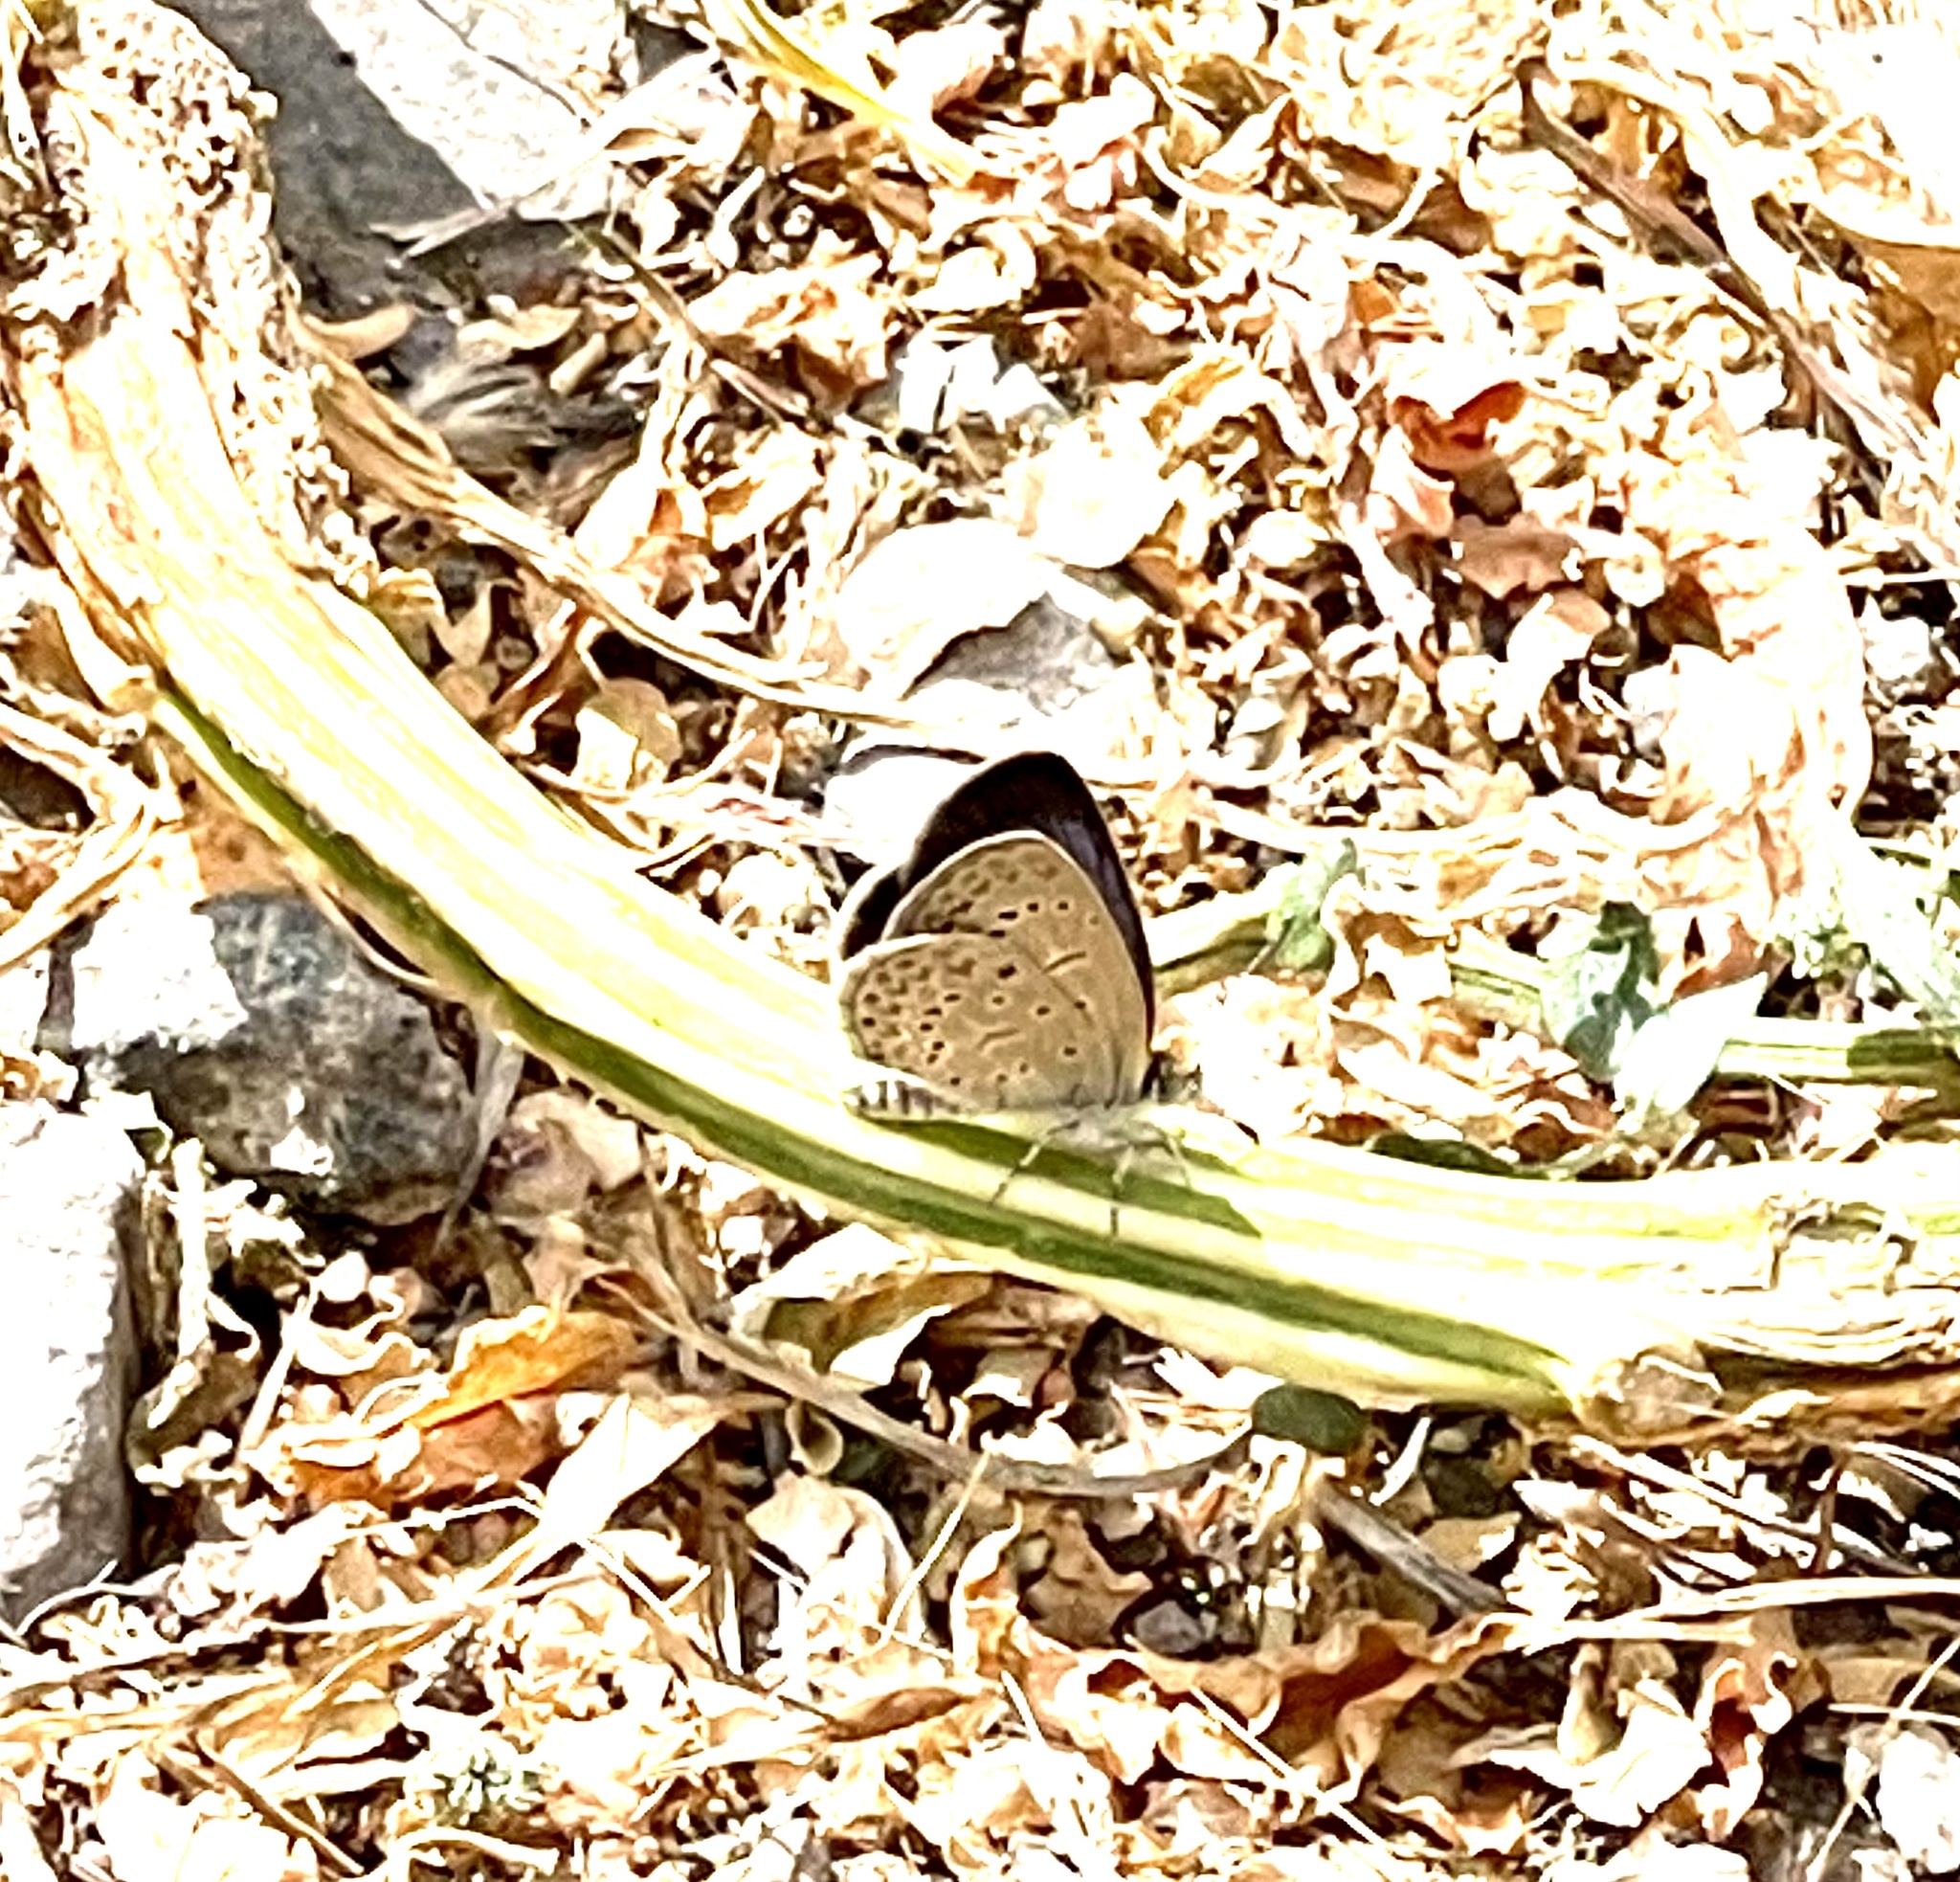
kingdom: Animalia
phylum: Arthropoda
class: Insecta
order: Lepidoptera
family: Lycaenidae
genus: Zizeeria
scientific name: Zizeeria knysna
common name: African grass blue
